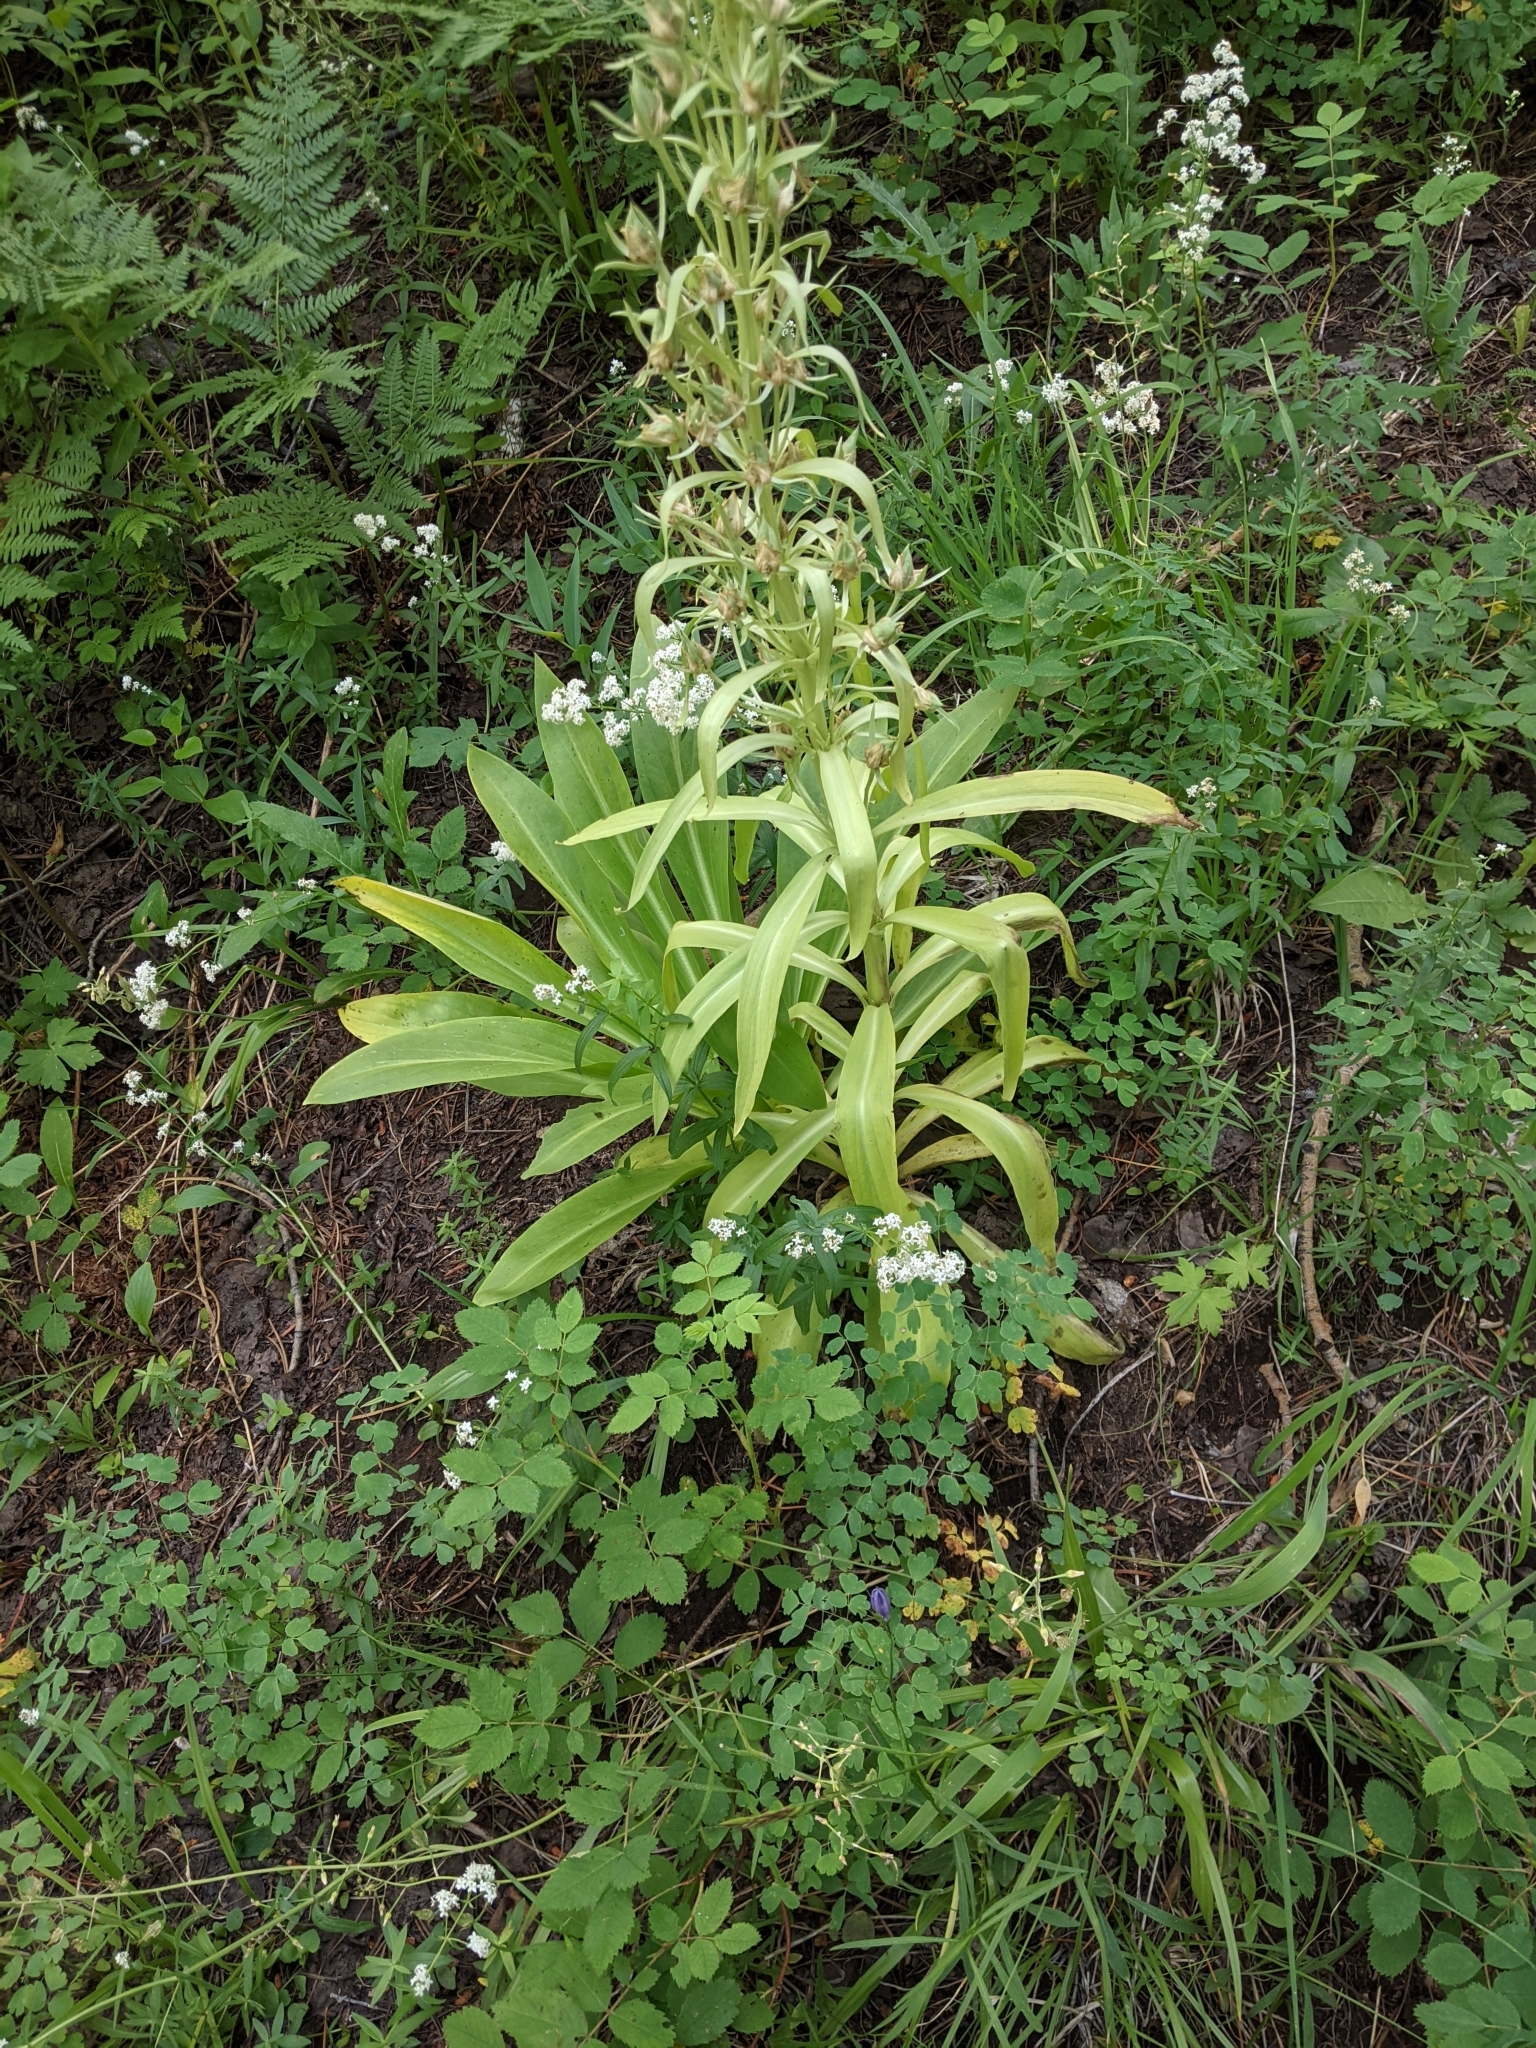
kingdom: Plantae
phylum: Tracheophyta
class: Magnoliopsida
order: Gentianales
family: Gentianaceae
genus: Frasera
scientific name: Frasera speciosa
